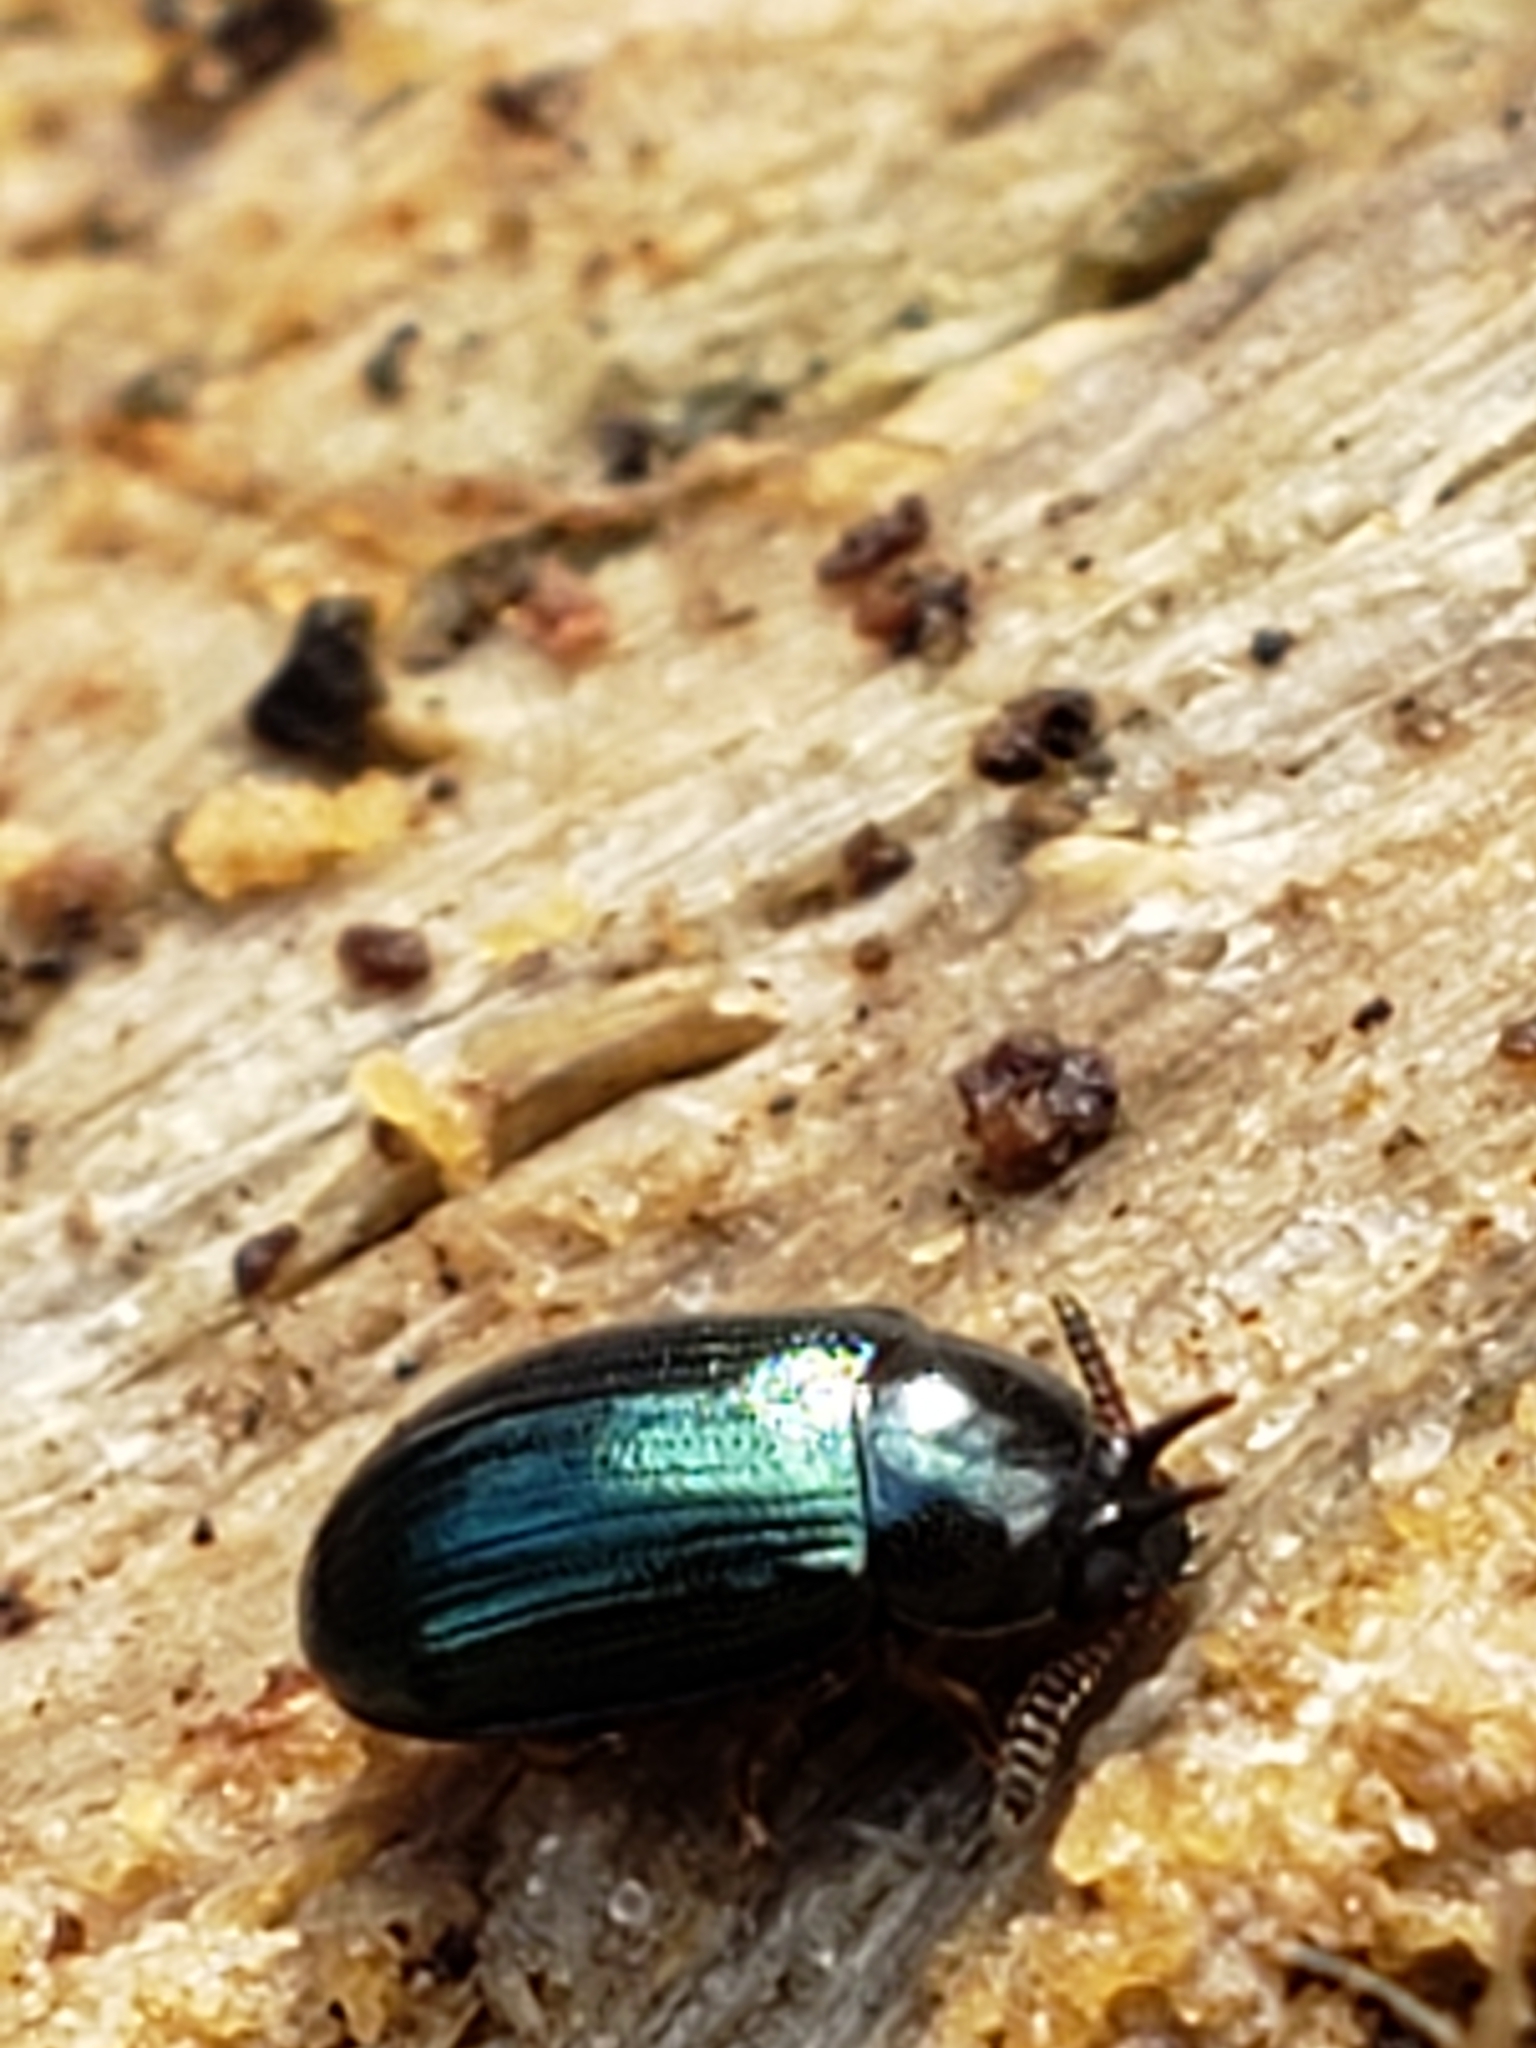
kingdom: Animalia
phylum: Arthropoda
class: Insecta
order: Coleoptera
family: Tenebrionidae
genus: Neomida
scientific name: Neomida bicornis
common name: Two-horned darkling beetle
